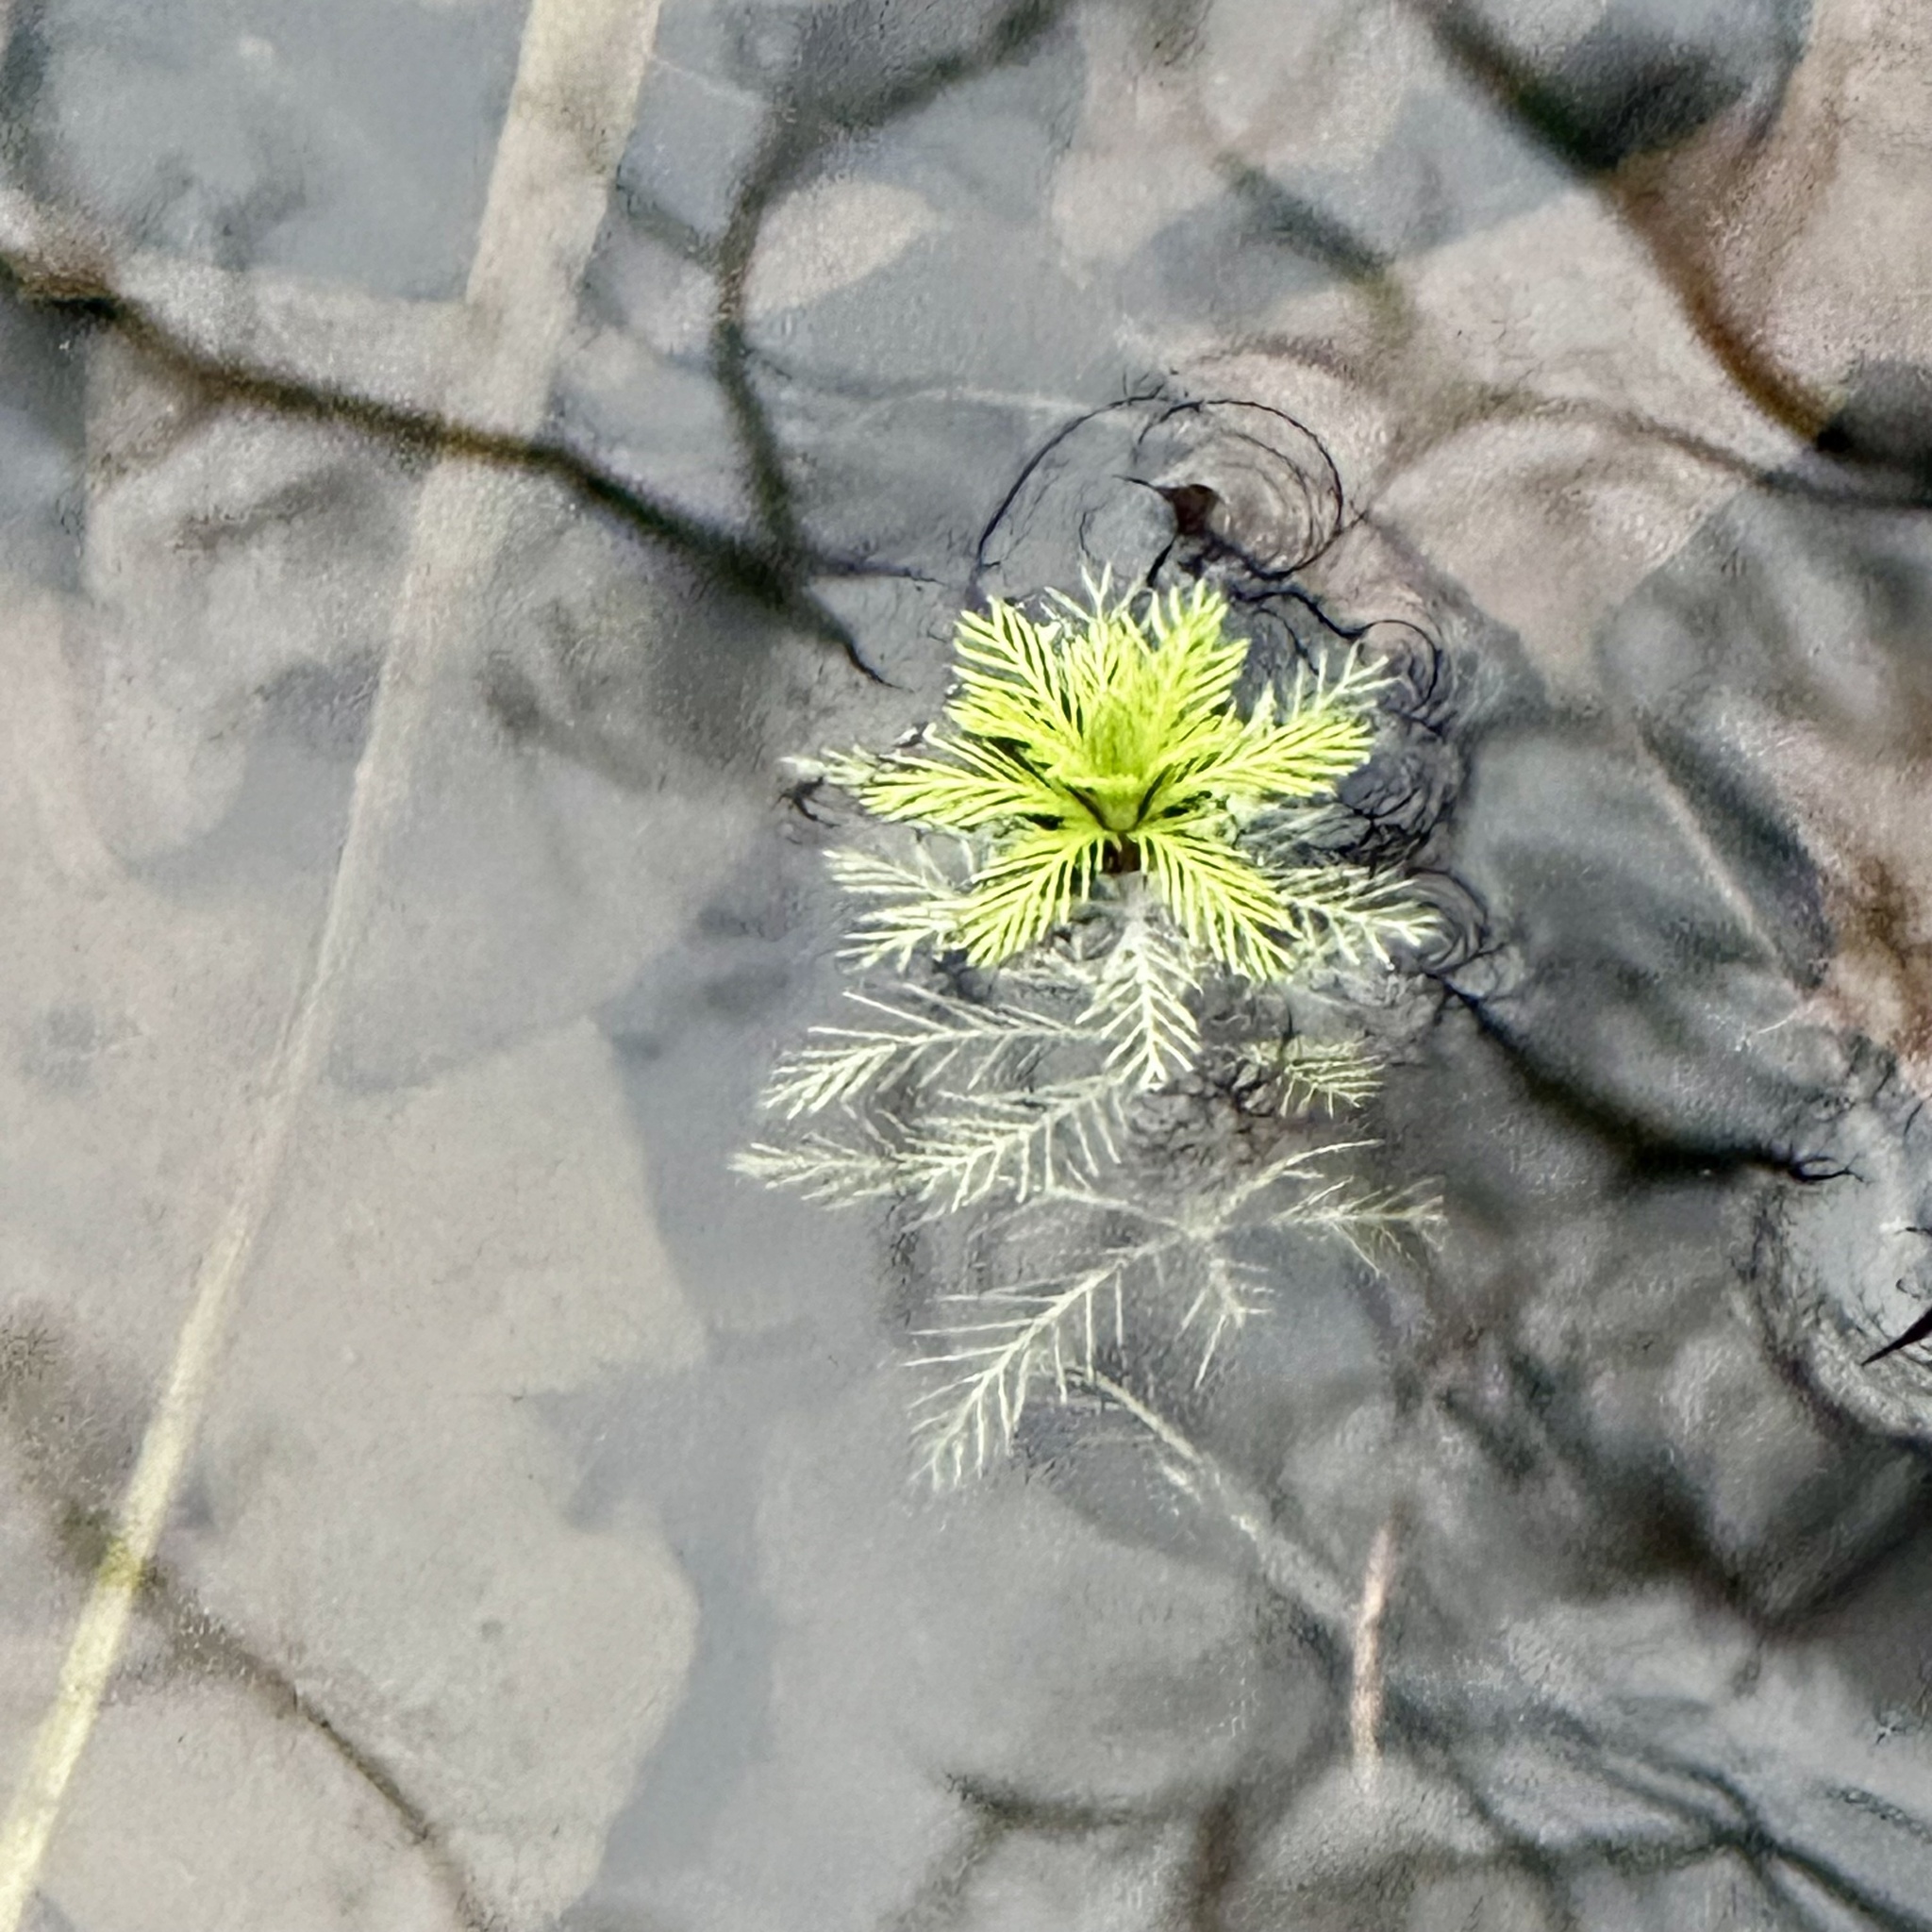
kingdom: Plantae
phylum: Tracheophyta
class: Magnoliopsida
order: Saxifragales
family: Haloragaceae
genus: Myriophyllum
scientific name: Myriophyllum aquaticum
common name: Parrot's feather
